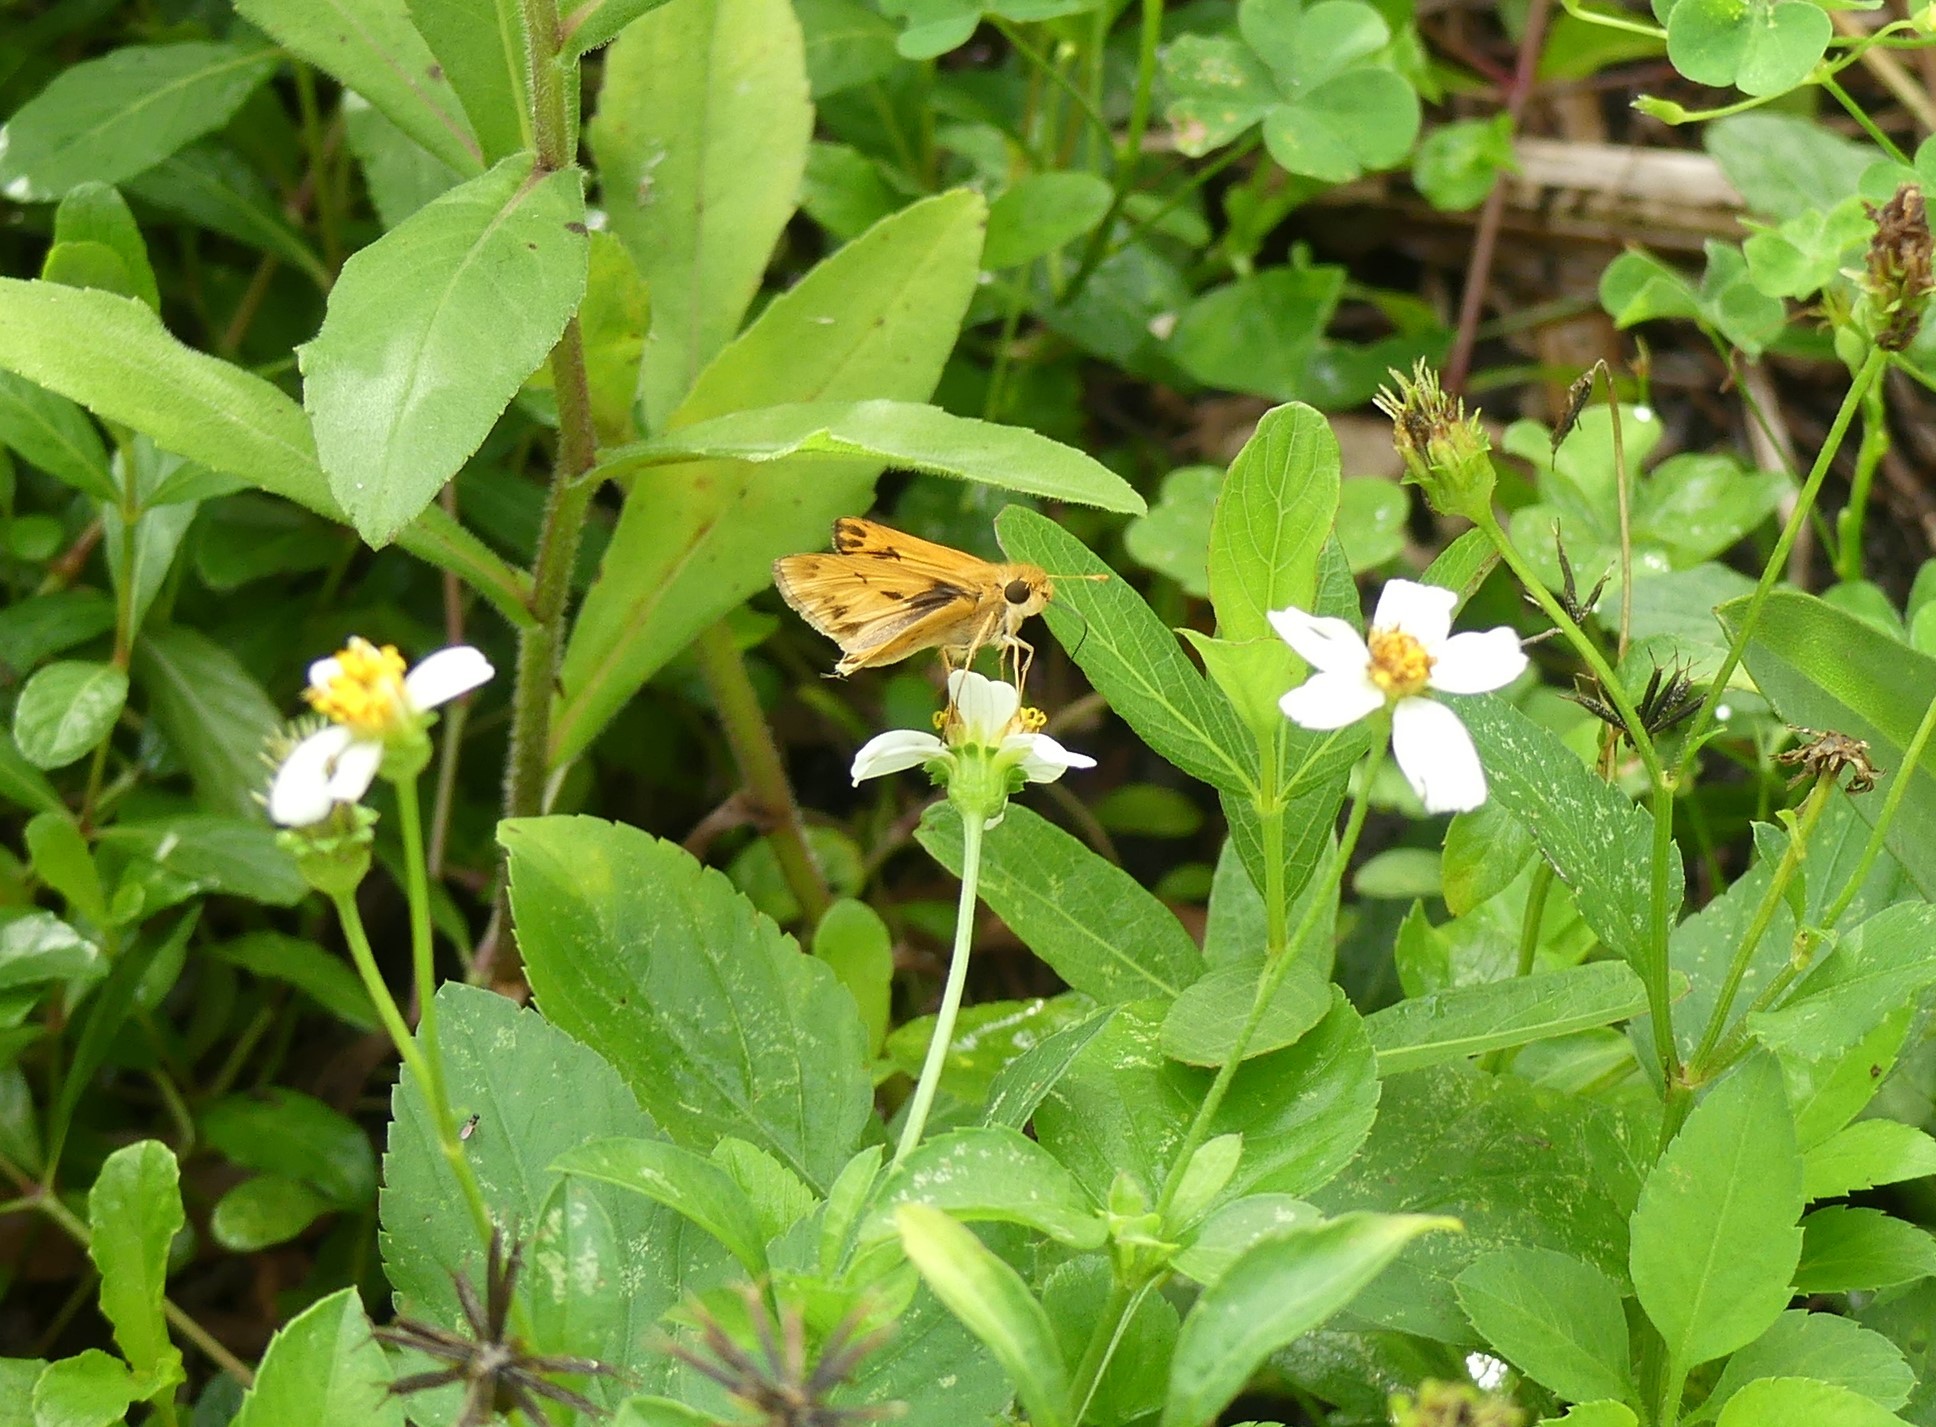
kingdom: Animalia
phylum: Arthropoda
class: Insecta
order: Lepidoptera
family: Hesperiidae
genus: Hylephila
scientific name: Hylephila phyleus
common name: Fiery skipper
